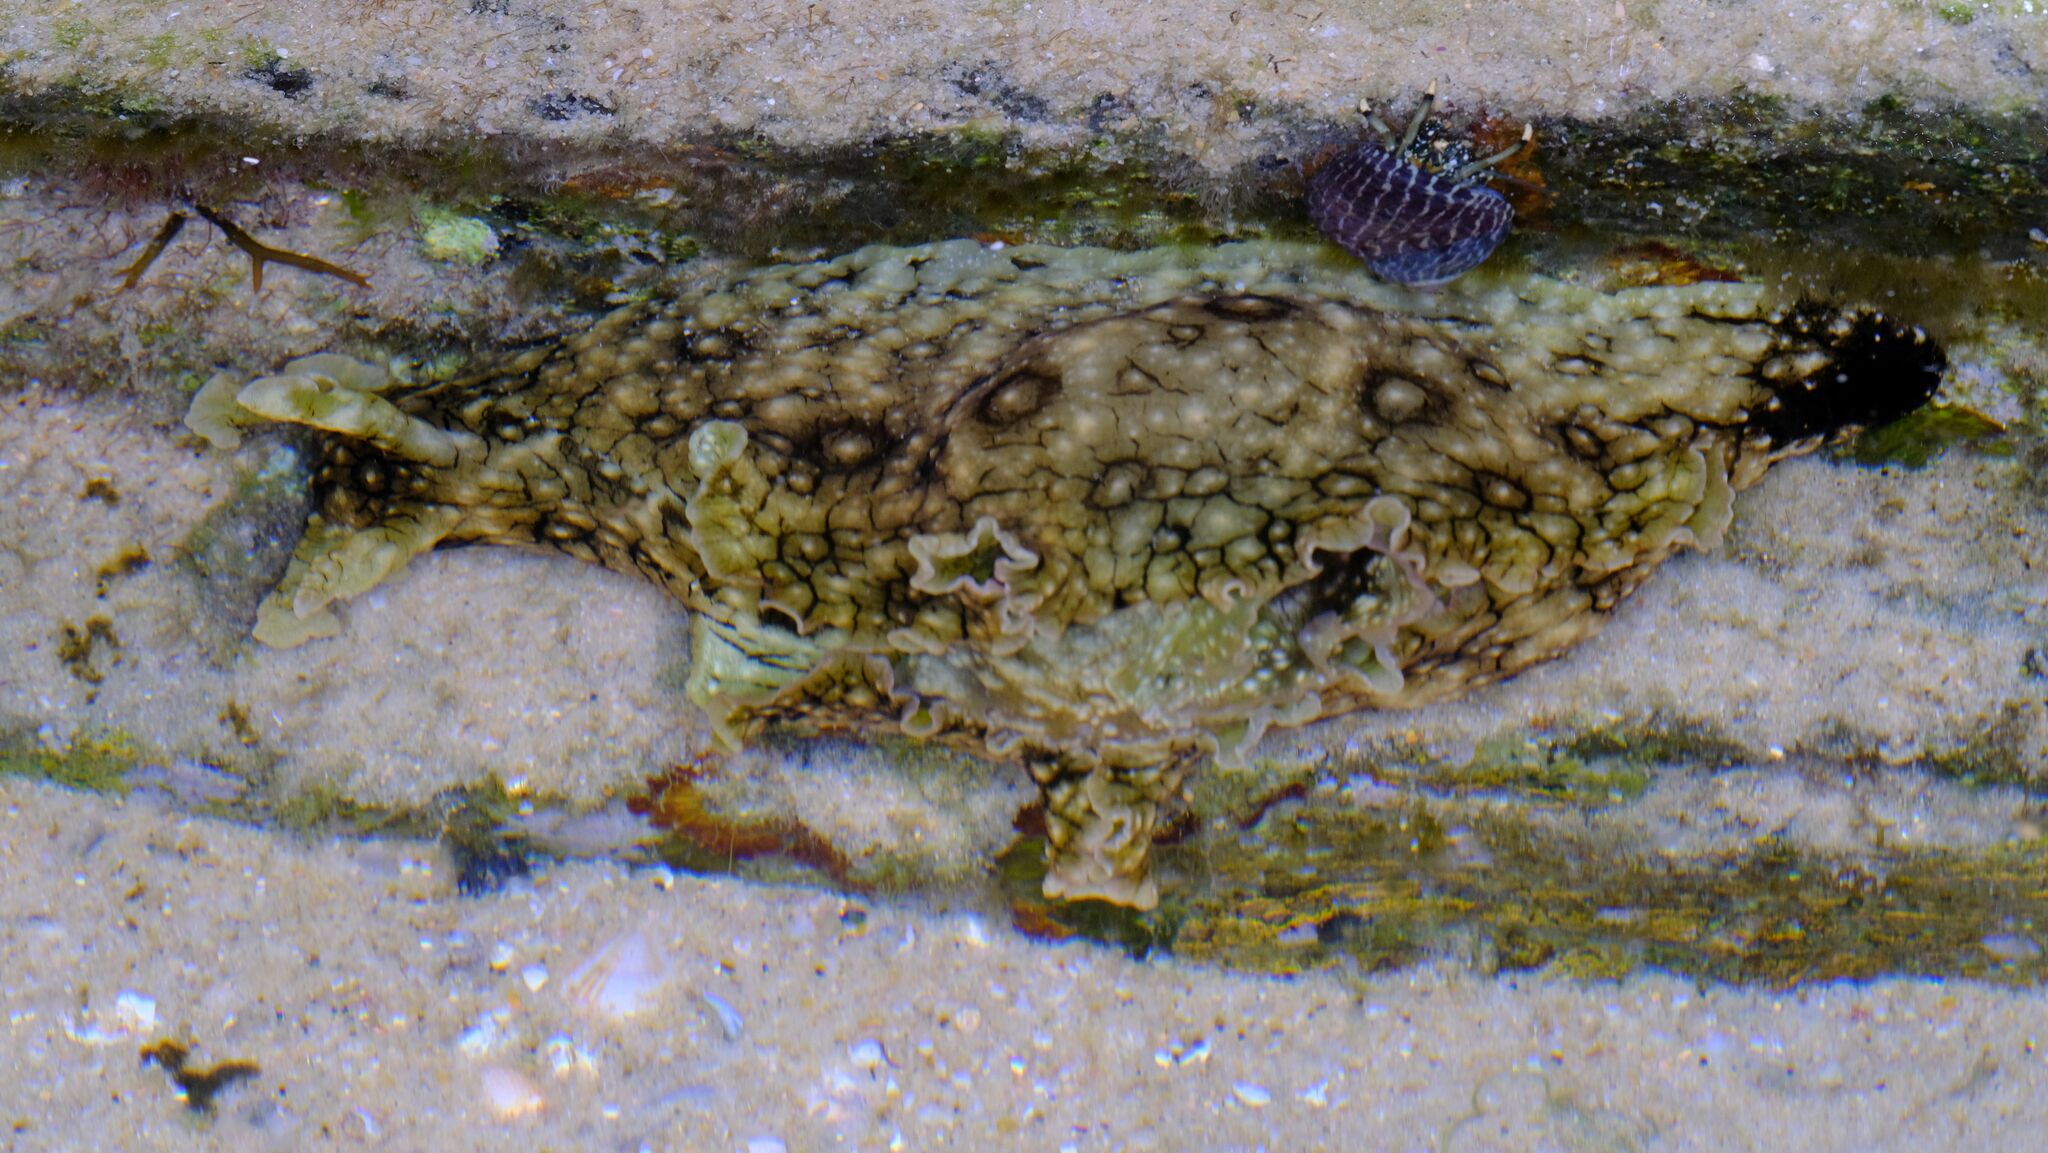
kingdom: Animalia
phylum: Mollusca
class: Gastropoda
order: Aplysiida
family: Aplysiidae
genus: Aplysia
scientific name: Aplysia argus
